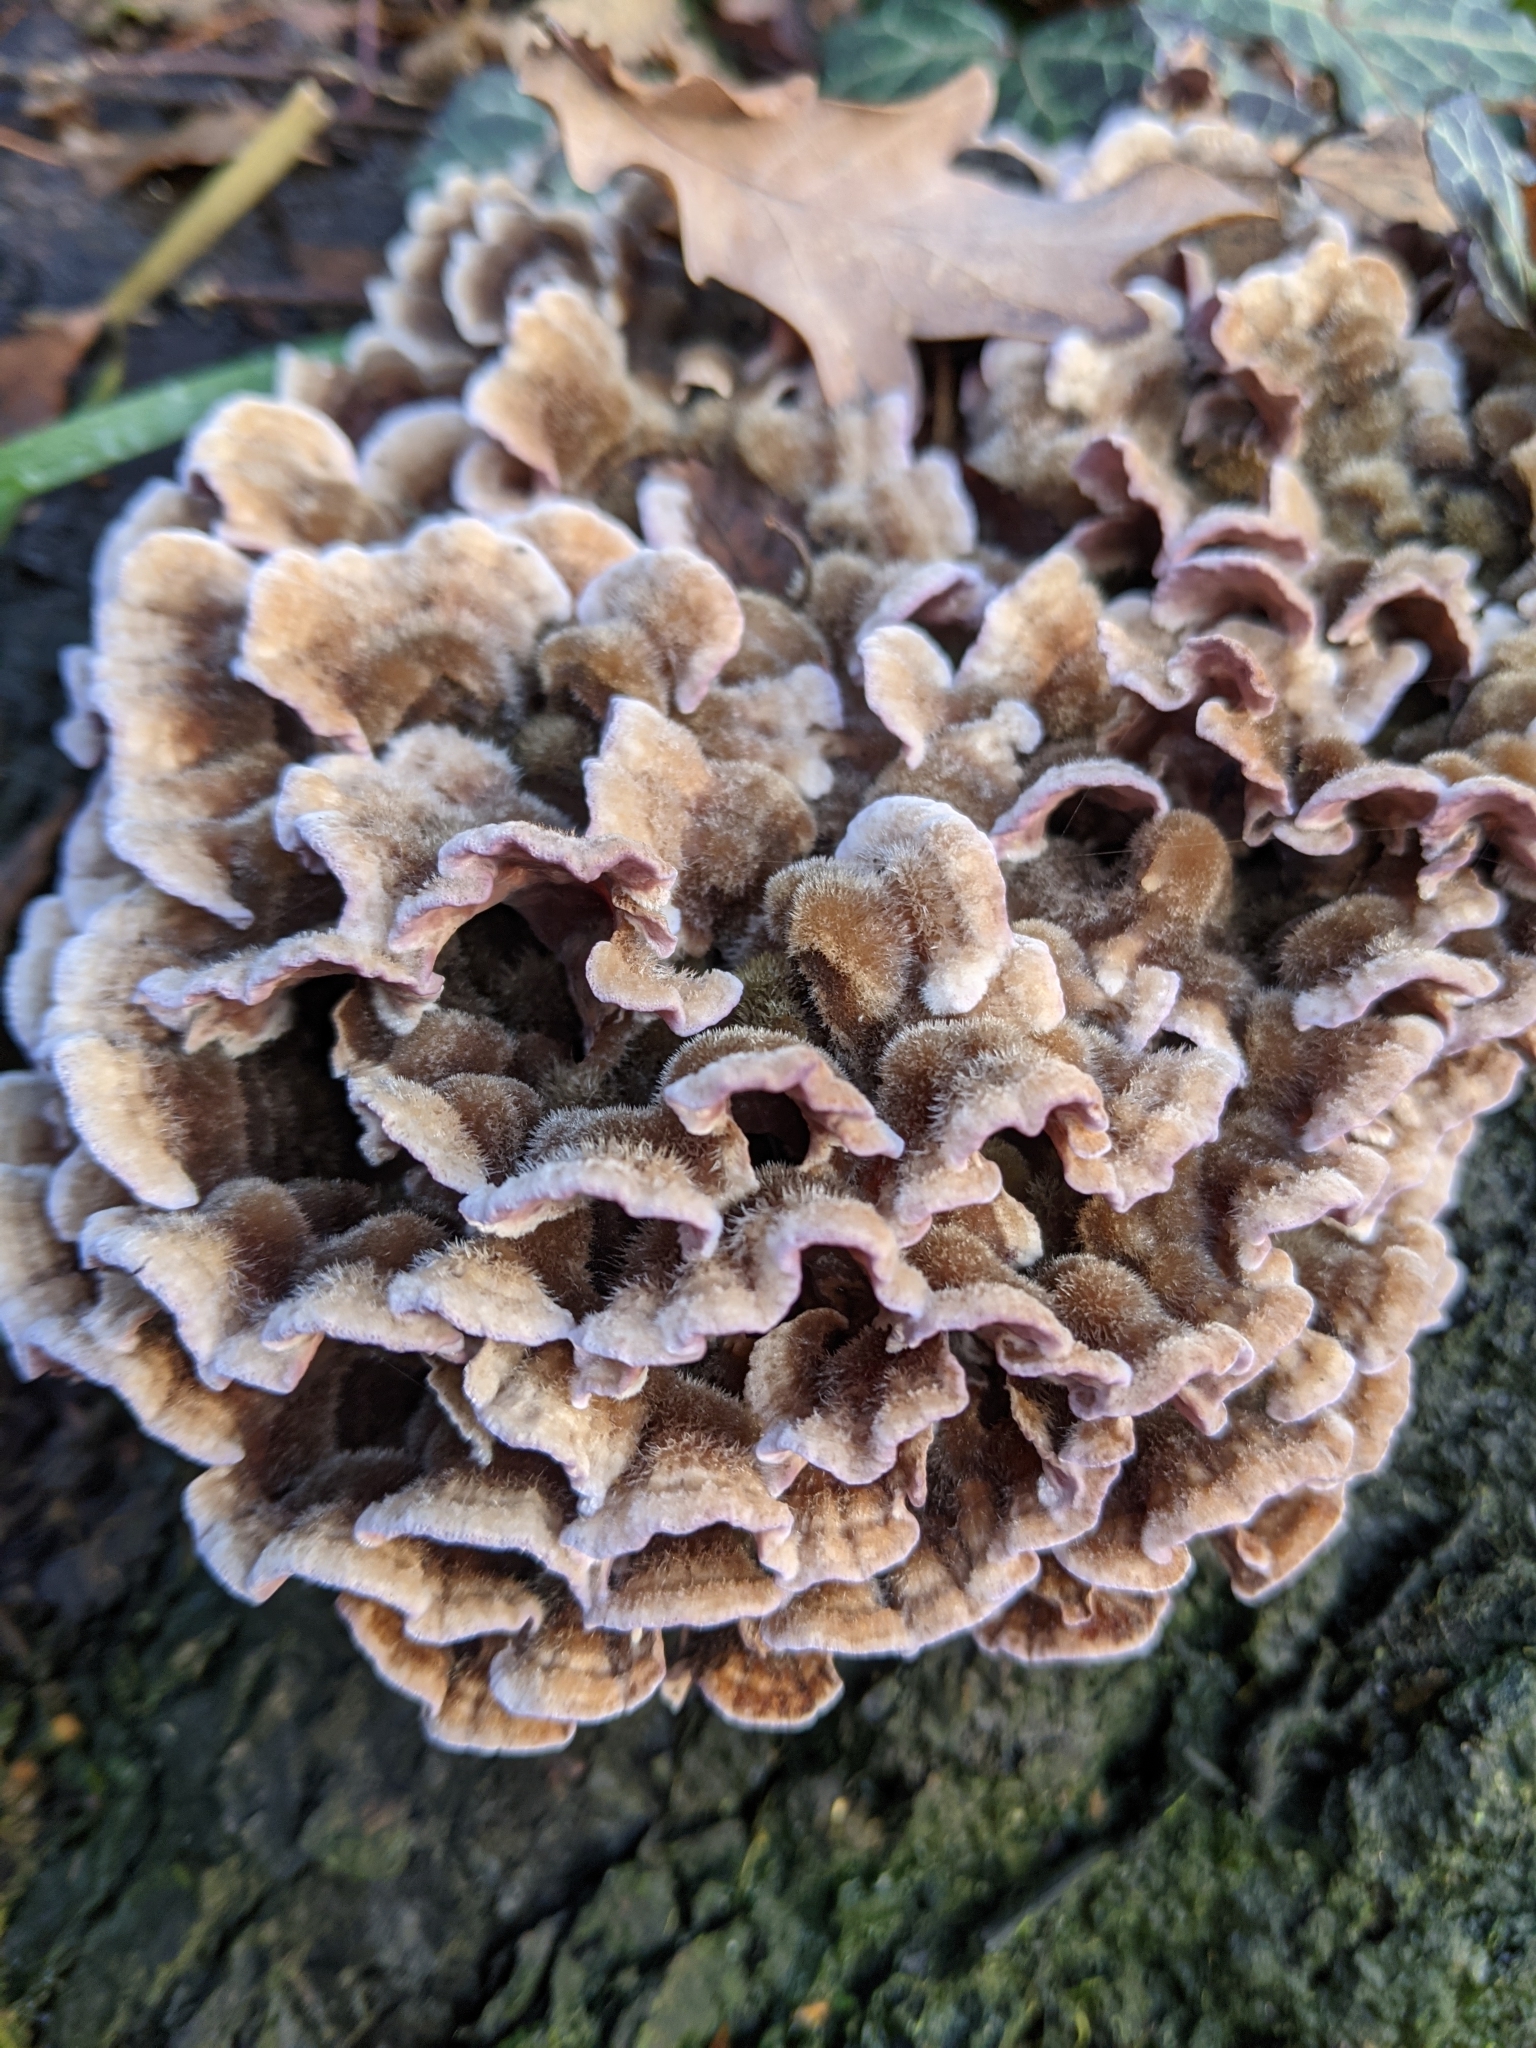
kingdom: Fungi
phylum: Basidiomycota
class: Agaricomycetes
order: Agaricales
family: Cyphellaceae
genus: Chondrostereum
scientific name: Chondrostereum purpureum
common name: Silver leaf disease
